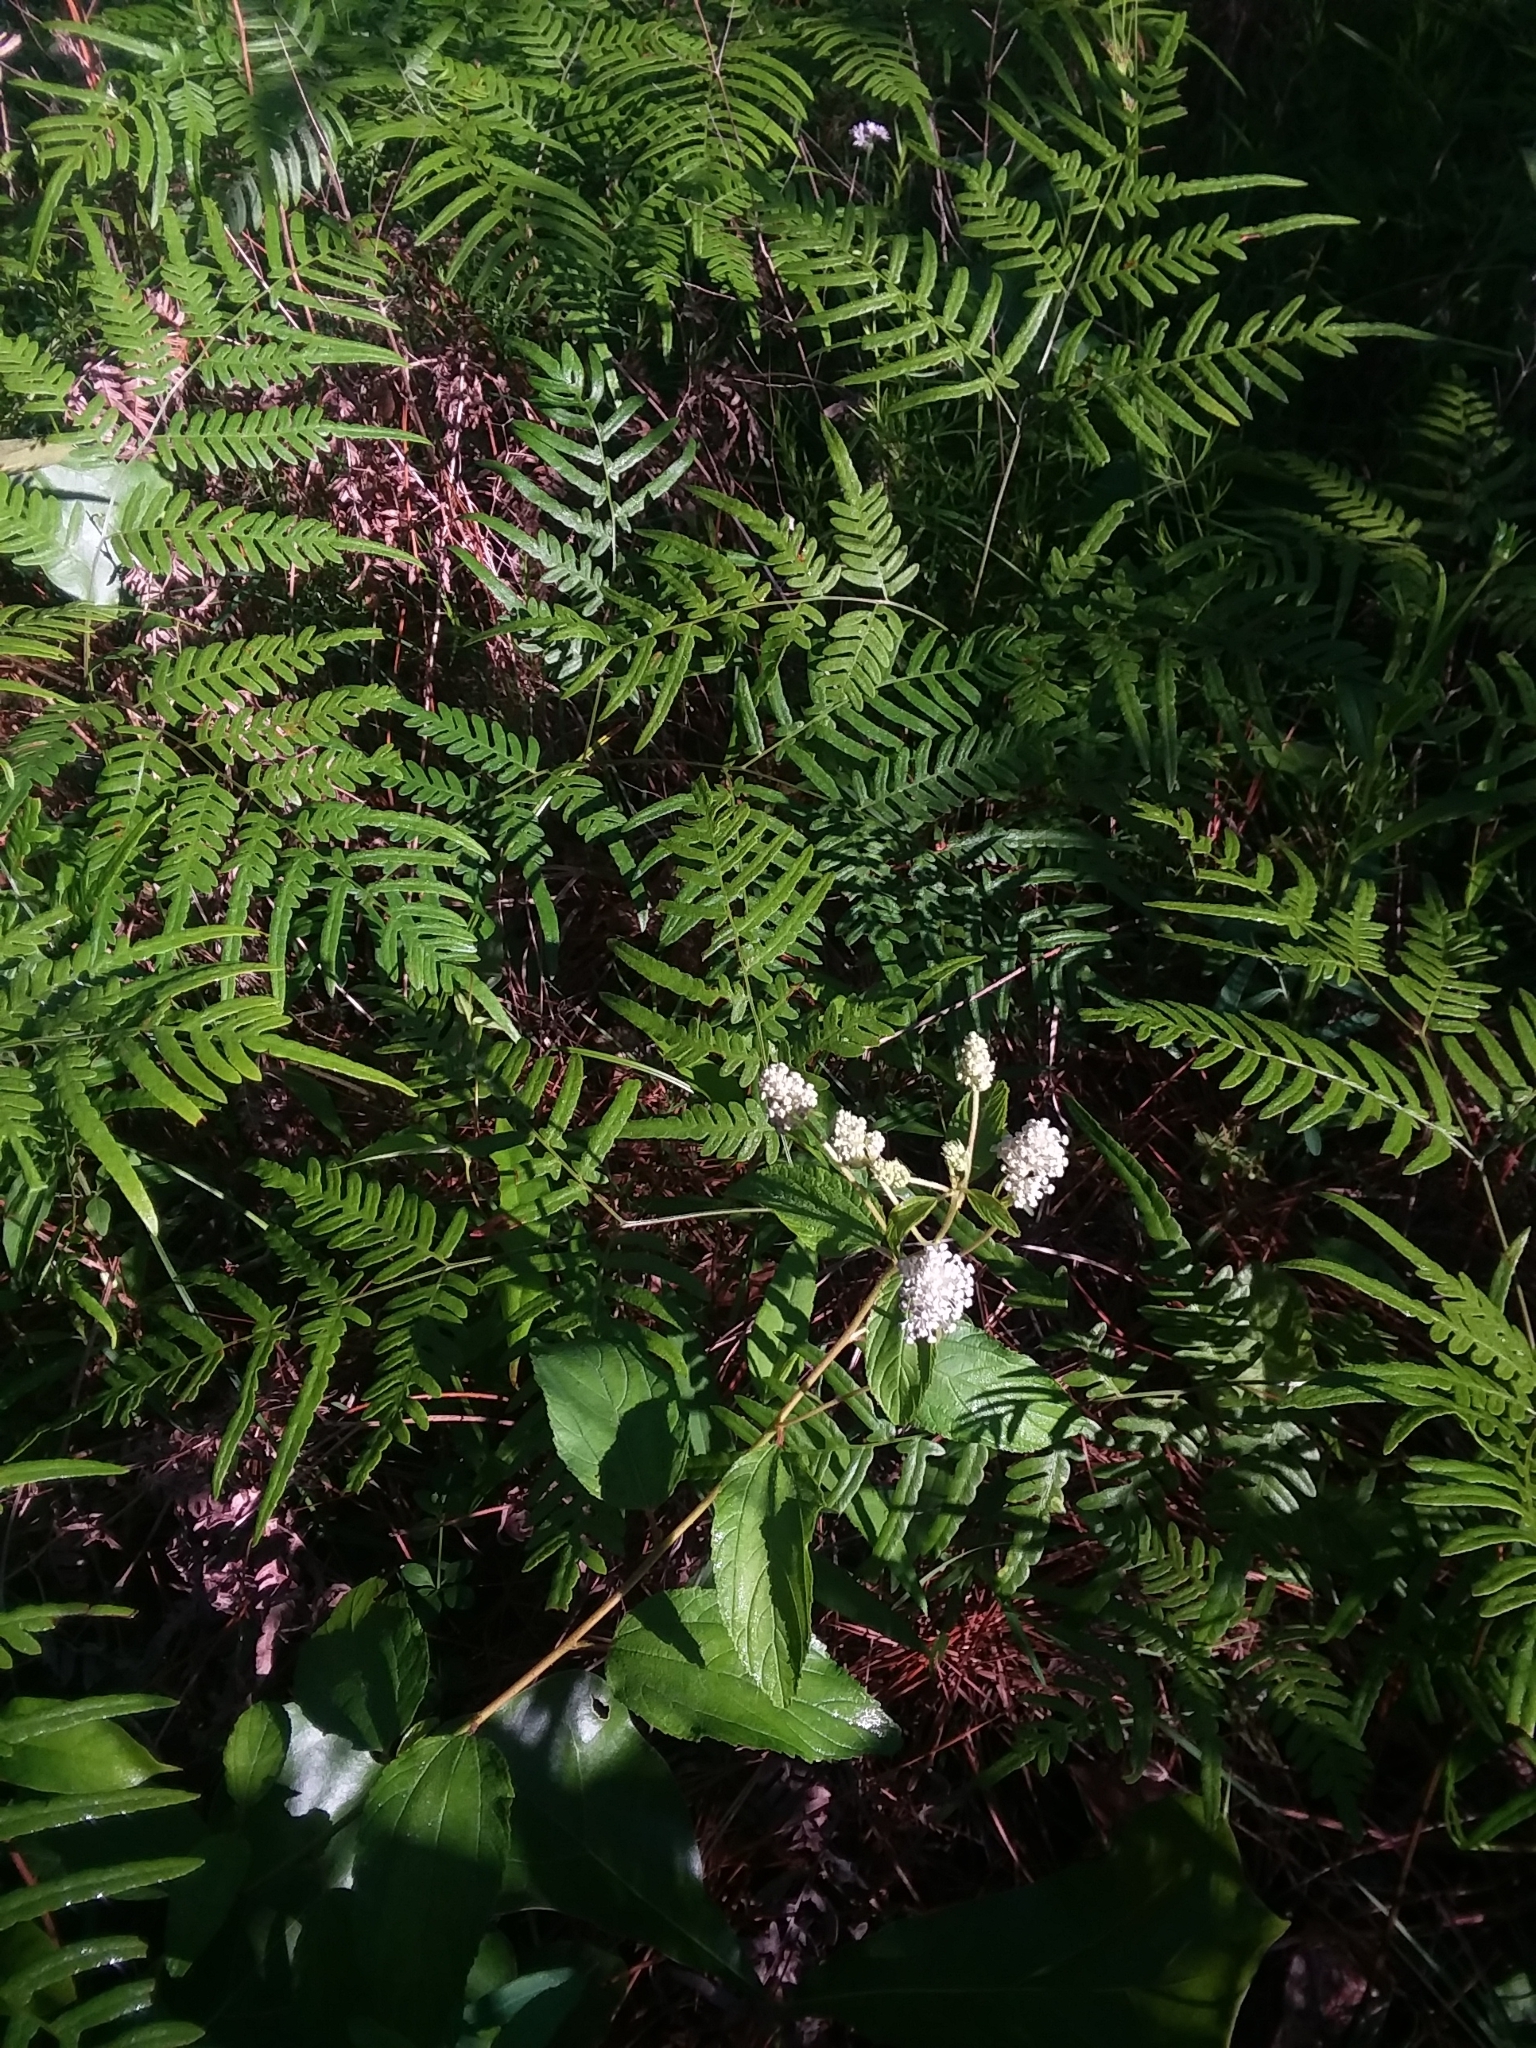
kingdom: Plantae
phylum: Tracheophyta
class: Magnoliopsida
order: Rosales
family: Rhamnaceae
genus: Ceanothus
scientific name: Ceanothus americanus
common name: Redroot
